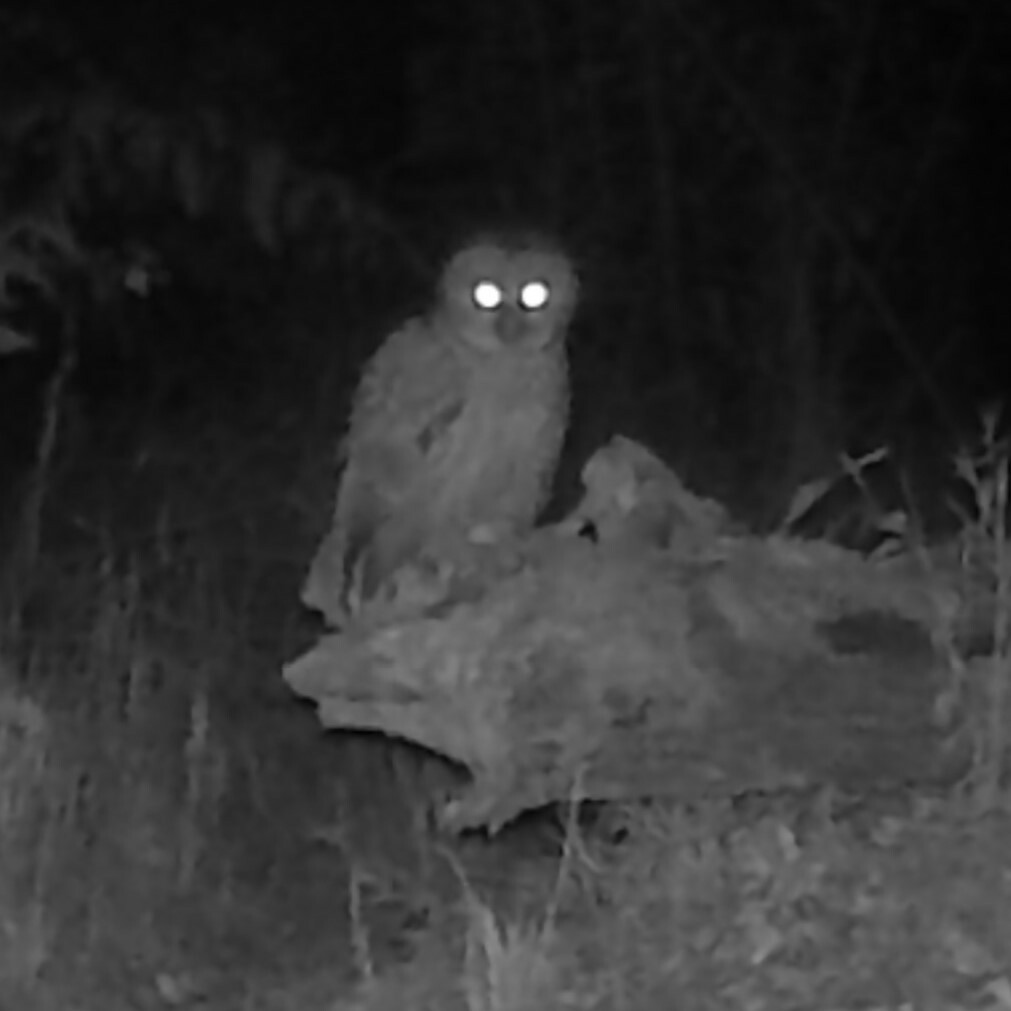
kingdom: Animalia
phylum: Chordata
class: Aves
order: Strigiformes
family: Strigidae
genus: Strix
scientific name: Strix varia
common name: Barred owl
